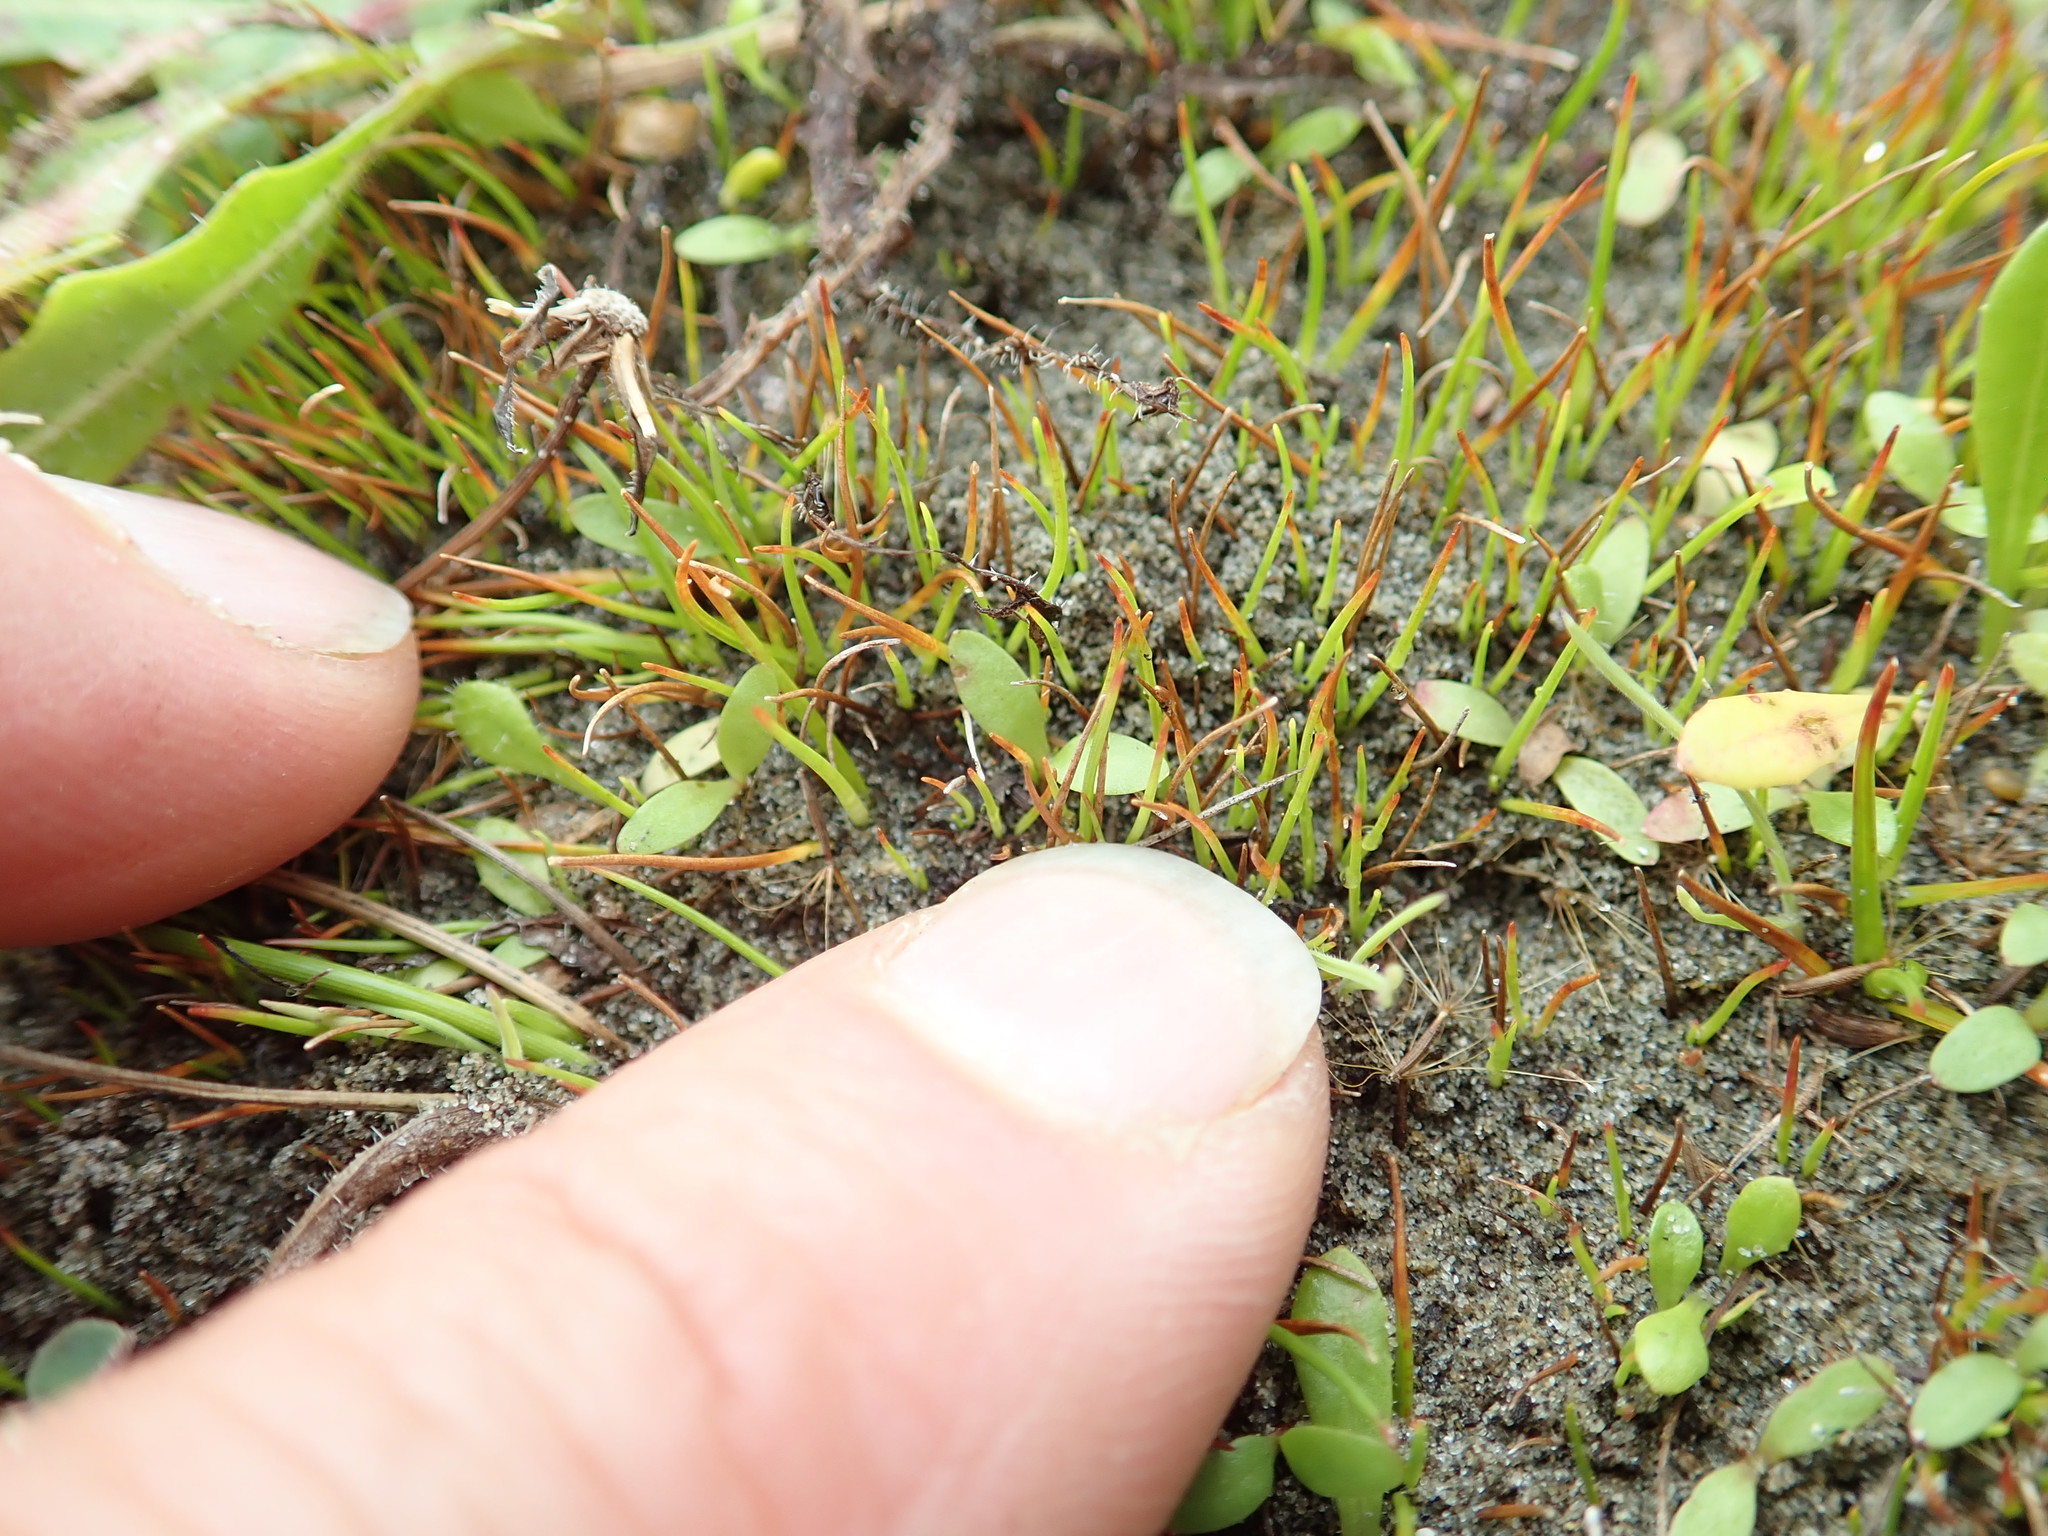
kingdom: Plantae
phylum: Tracheophyta
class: Liliopsida
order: Poales
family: Juncaceae
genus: Juncus
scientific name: Juncus caespiticius
